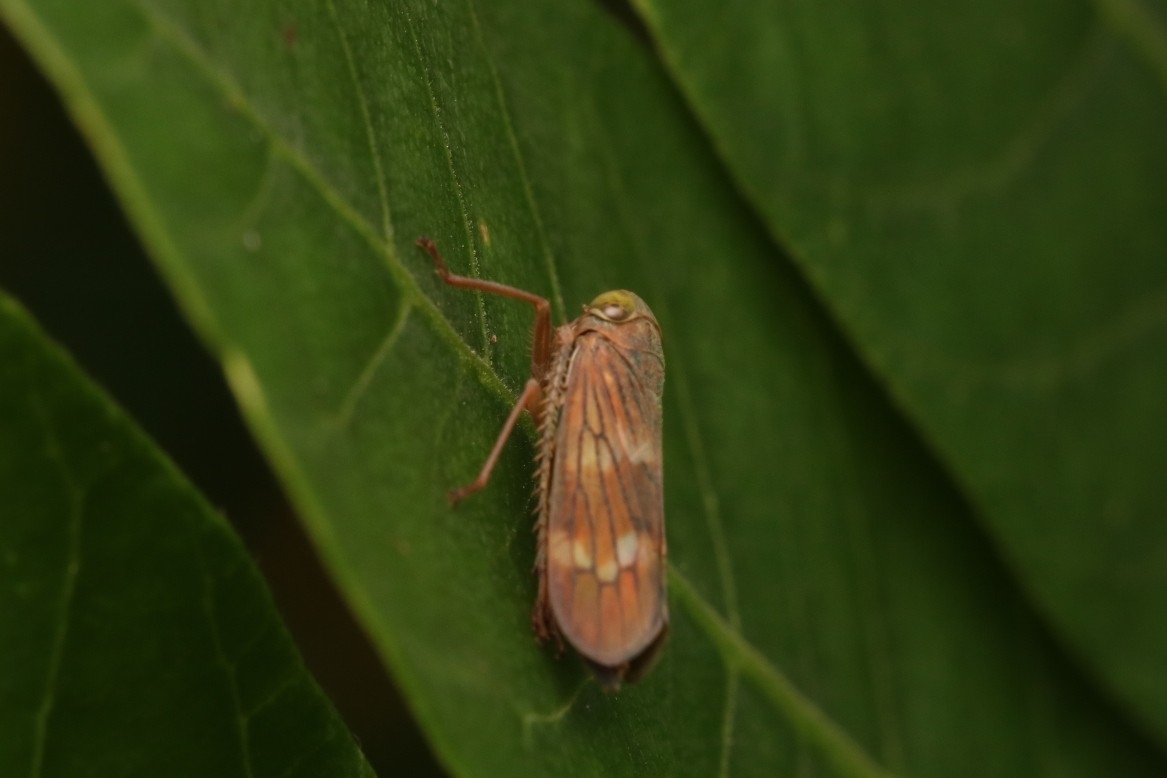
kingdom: Animalia
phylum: Arthropoda
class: Insecta
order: Hemiptera
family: Cicadellidae
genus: Jikradia
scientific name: Jikradia olitoria
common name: Coppery leafhopper
